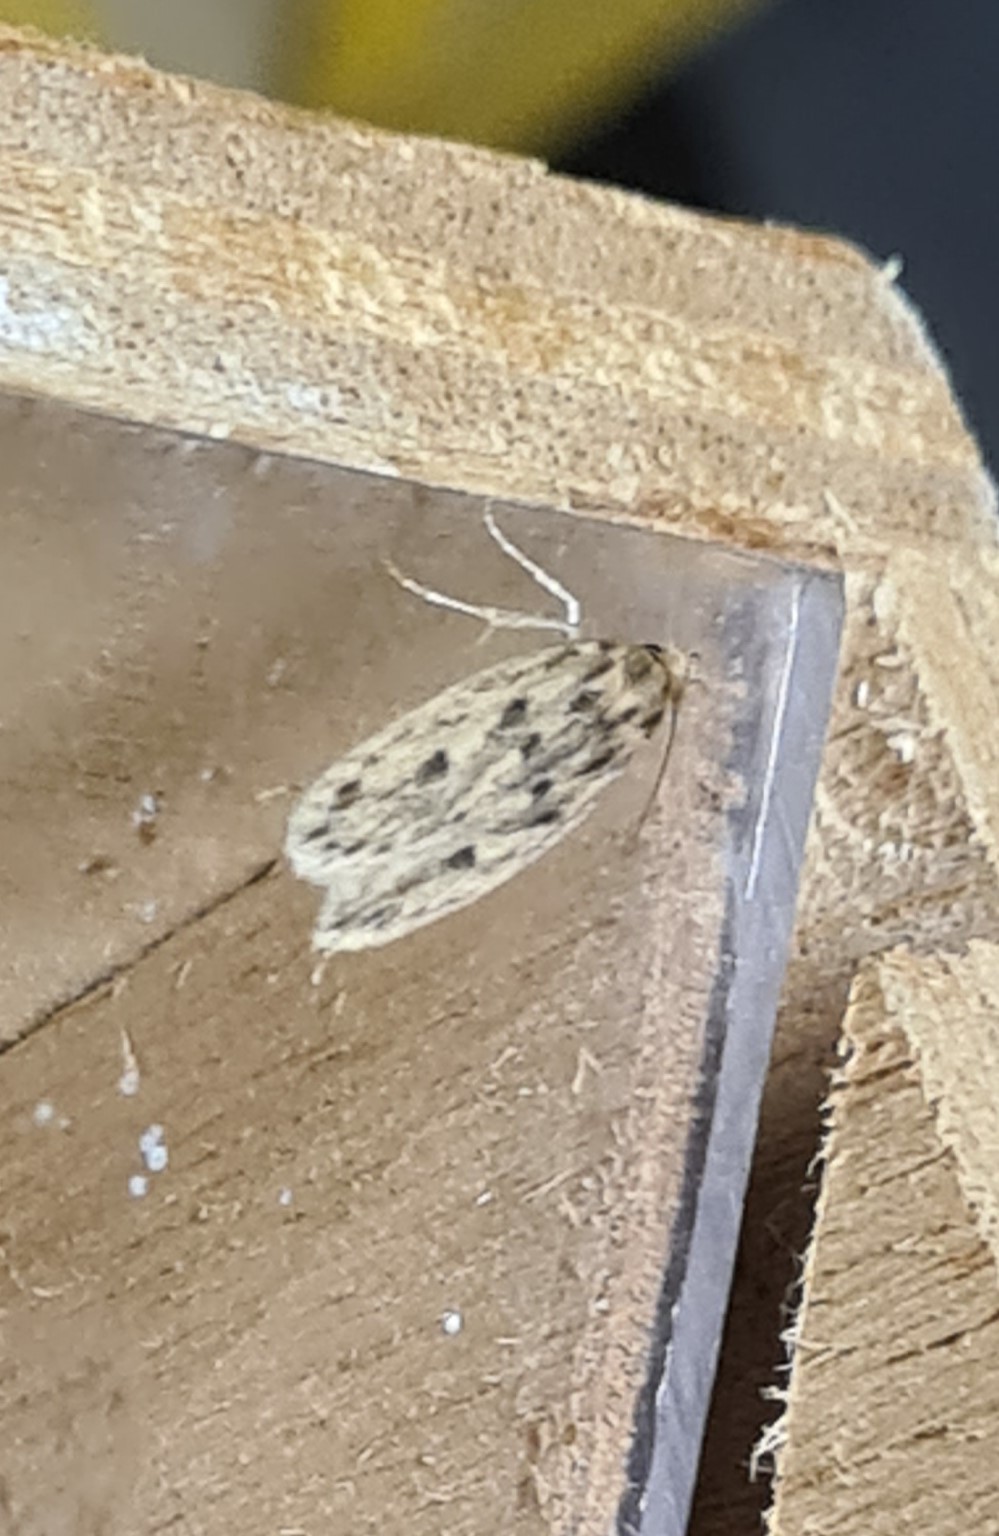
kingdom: Animalia
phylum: Arthropoda
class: Insecta
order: Lepidoptera
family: Oecophoridae
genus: Hofmannophila
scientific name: Hofmannophila pseudospretella
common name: Brown house moth
